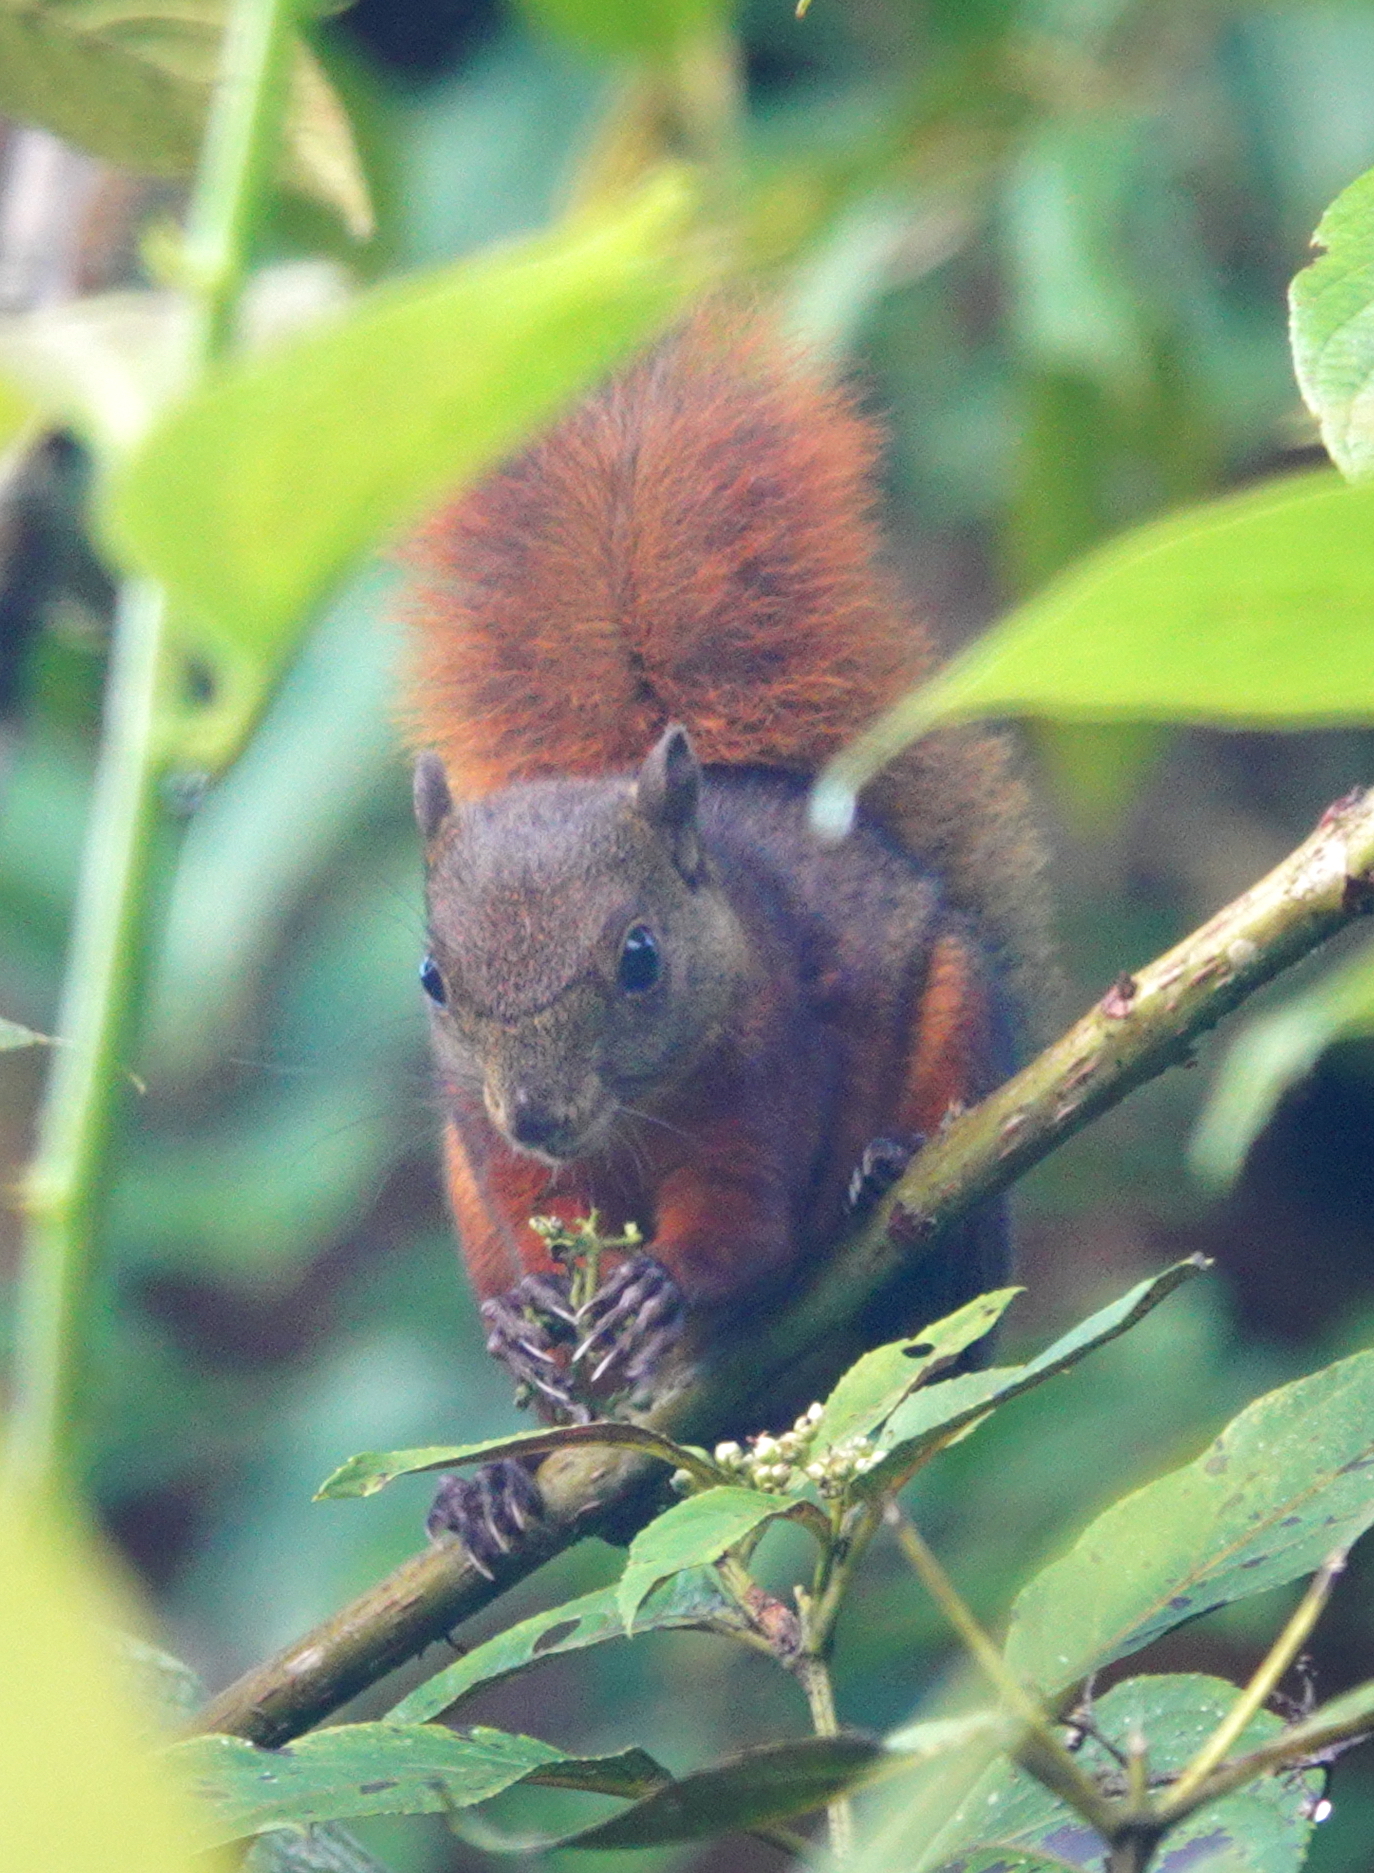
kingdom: Animalia
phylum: Chordata
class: Mammalia
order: Rodentia
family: Sciuridae
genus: Sciurus
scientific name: Sciurus granatensis
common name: Red-tailed squirrel
